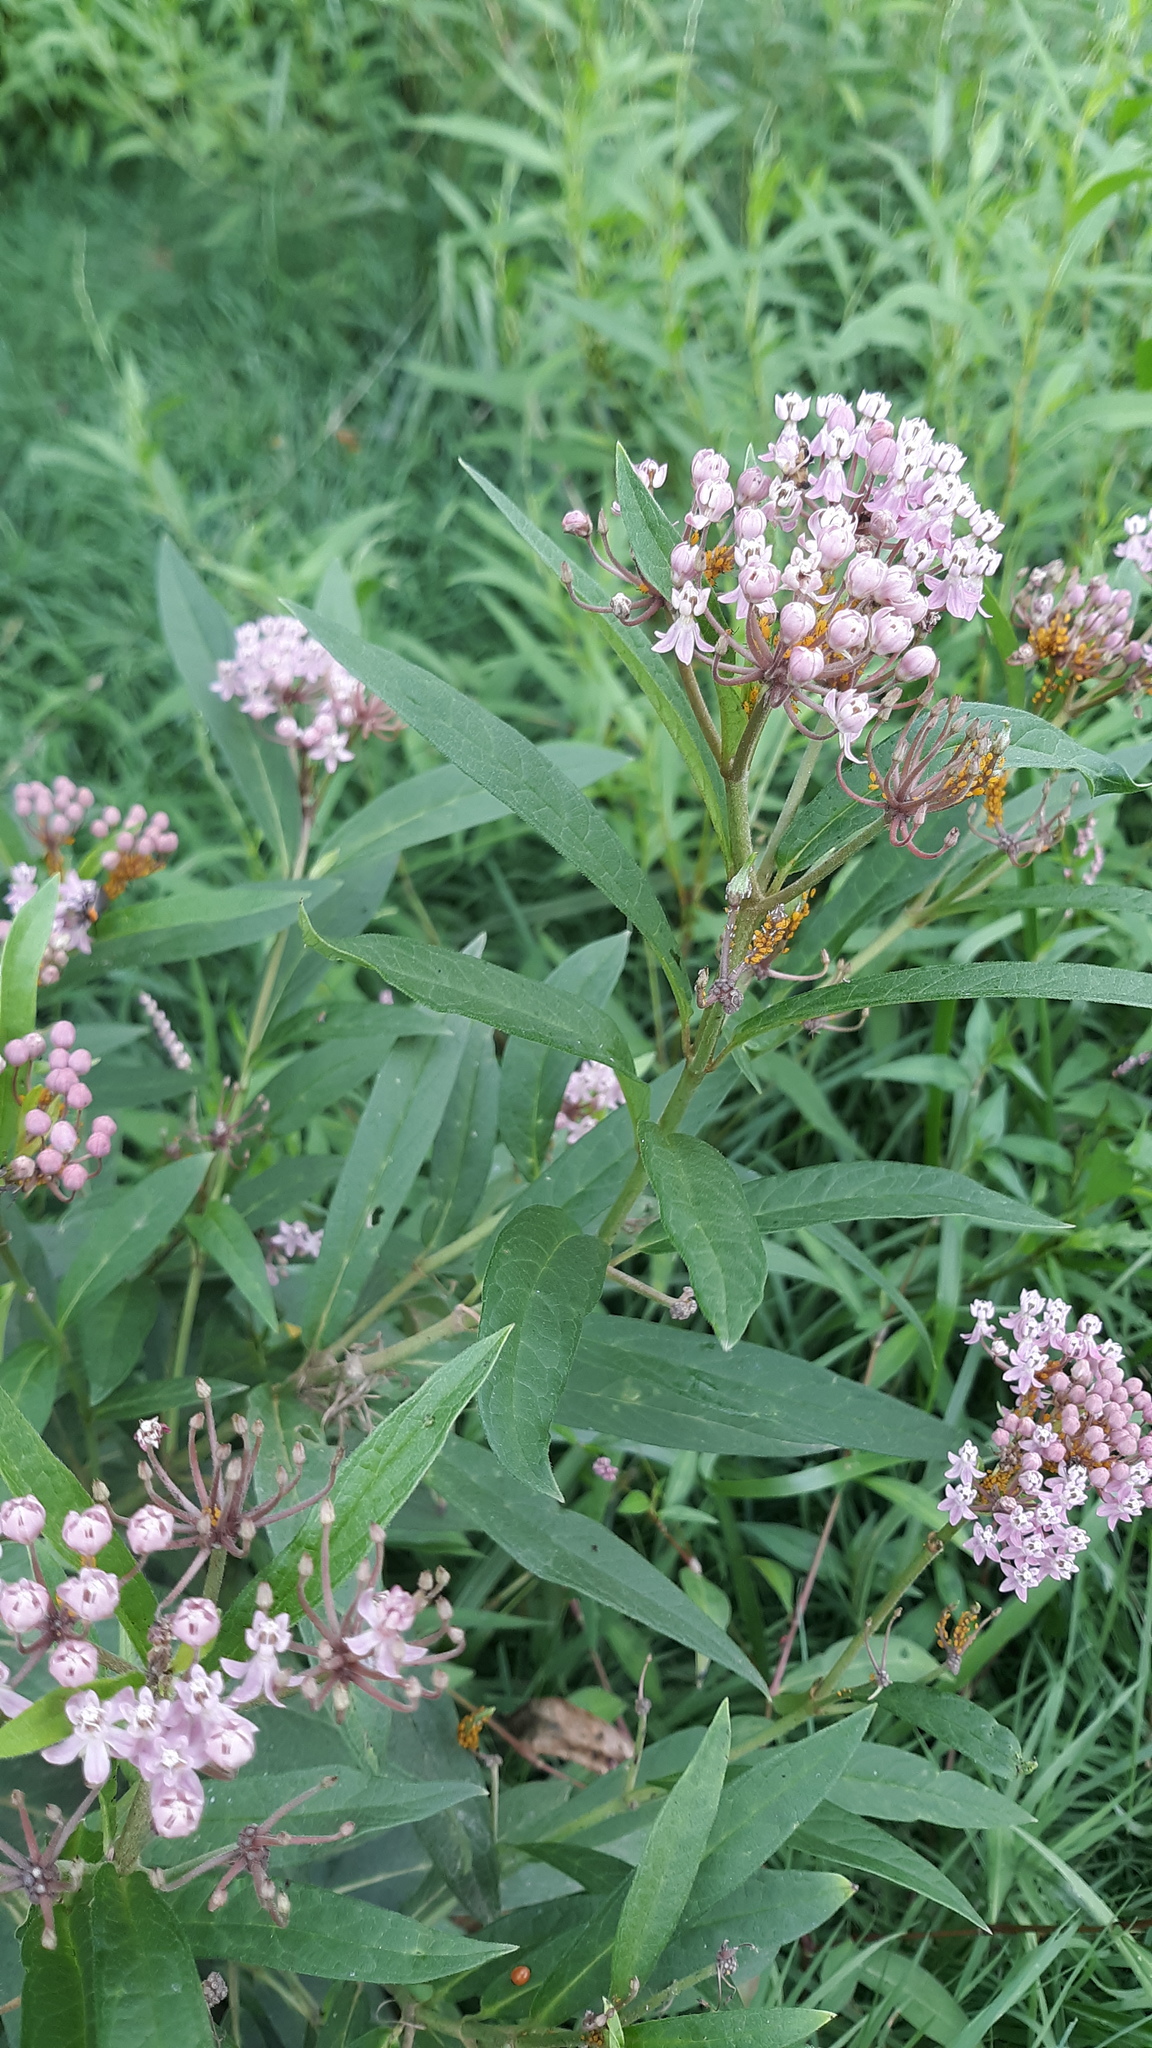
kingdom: Plantae
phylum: Tracheophyta
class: Magnoliopsida
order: Gentianales
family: Apocynaceae
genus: Asclepias
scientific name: Asclepias incarnata
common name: Swamp milkweed
